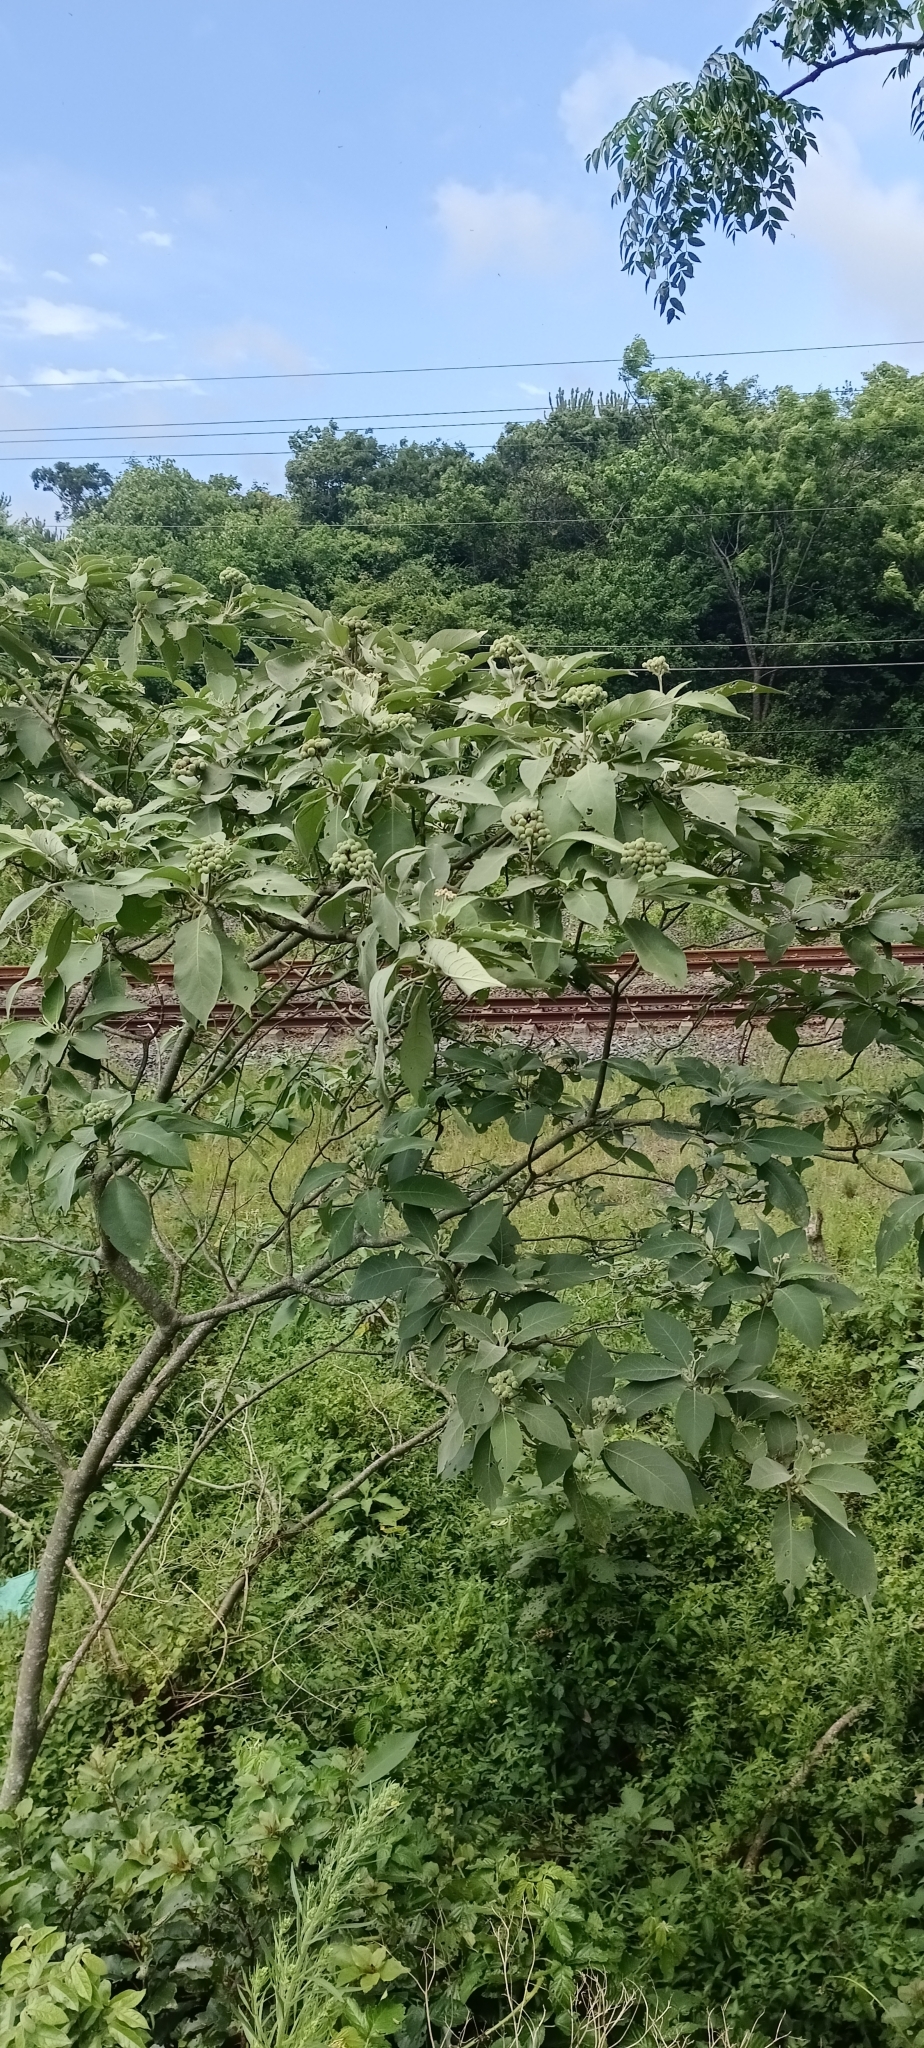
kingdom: Plantae
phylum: Tracheophyta
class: Magnoliopsida
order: Solanales
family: Solanaceae
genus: Solanum
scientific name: Solanum mauritianum
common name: Earleaf nightshade
